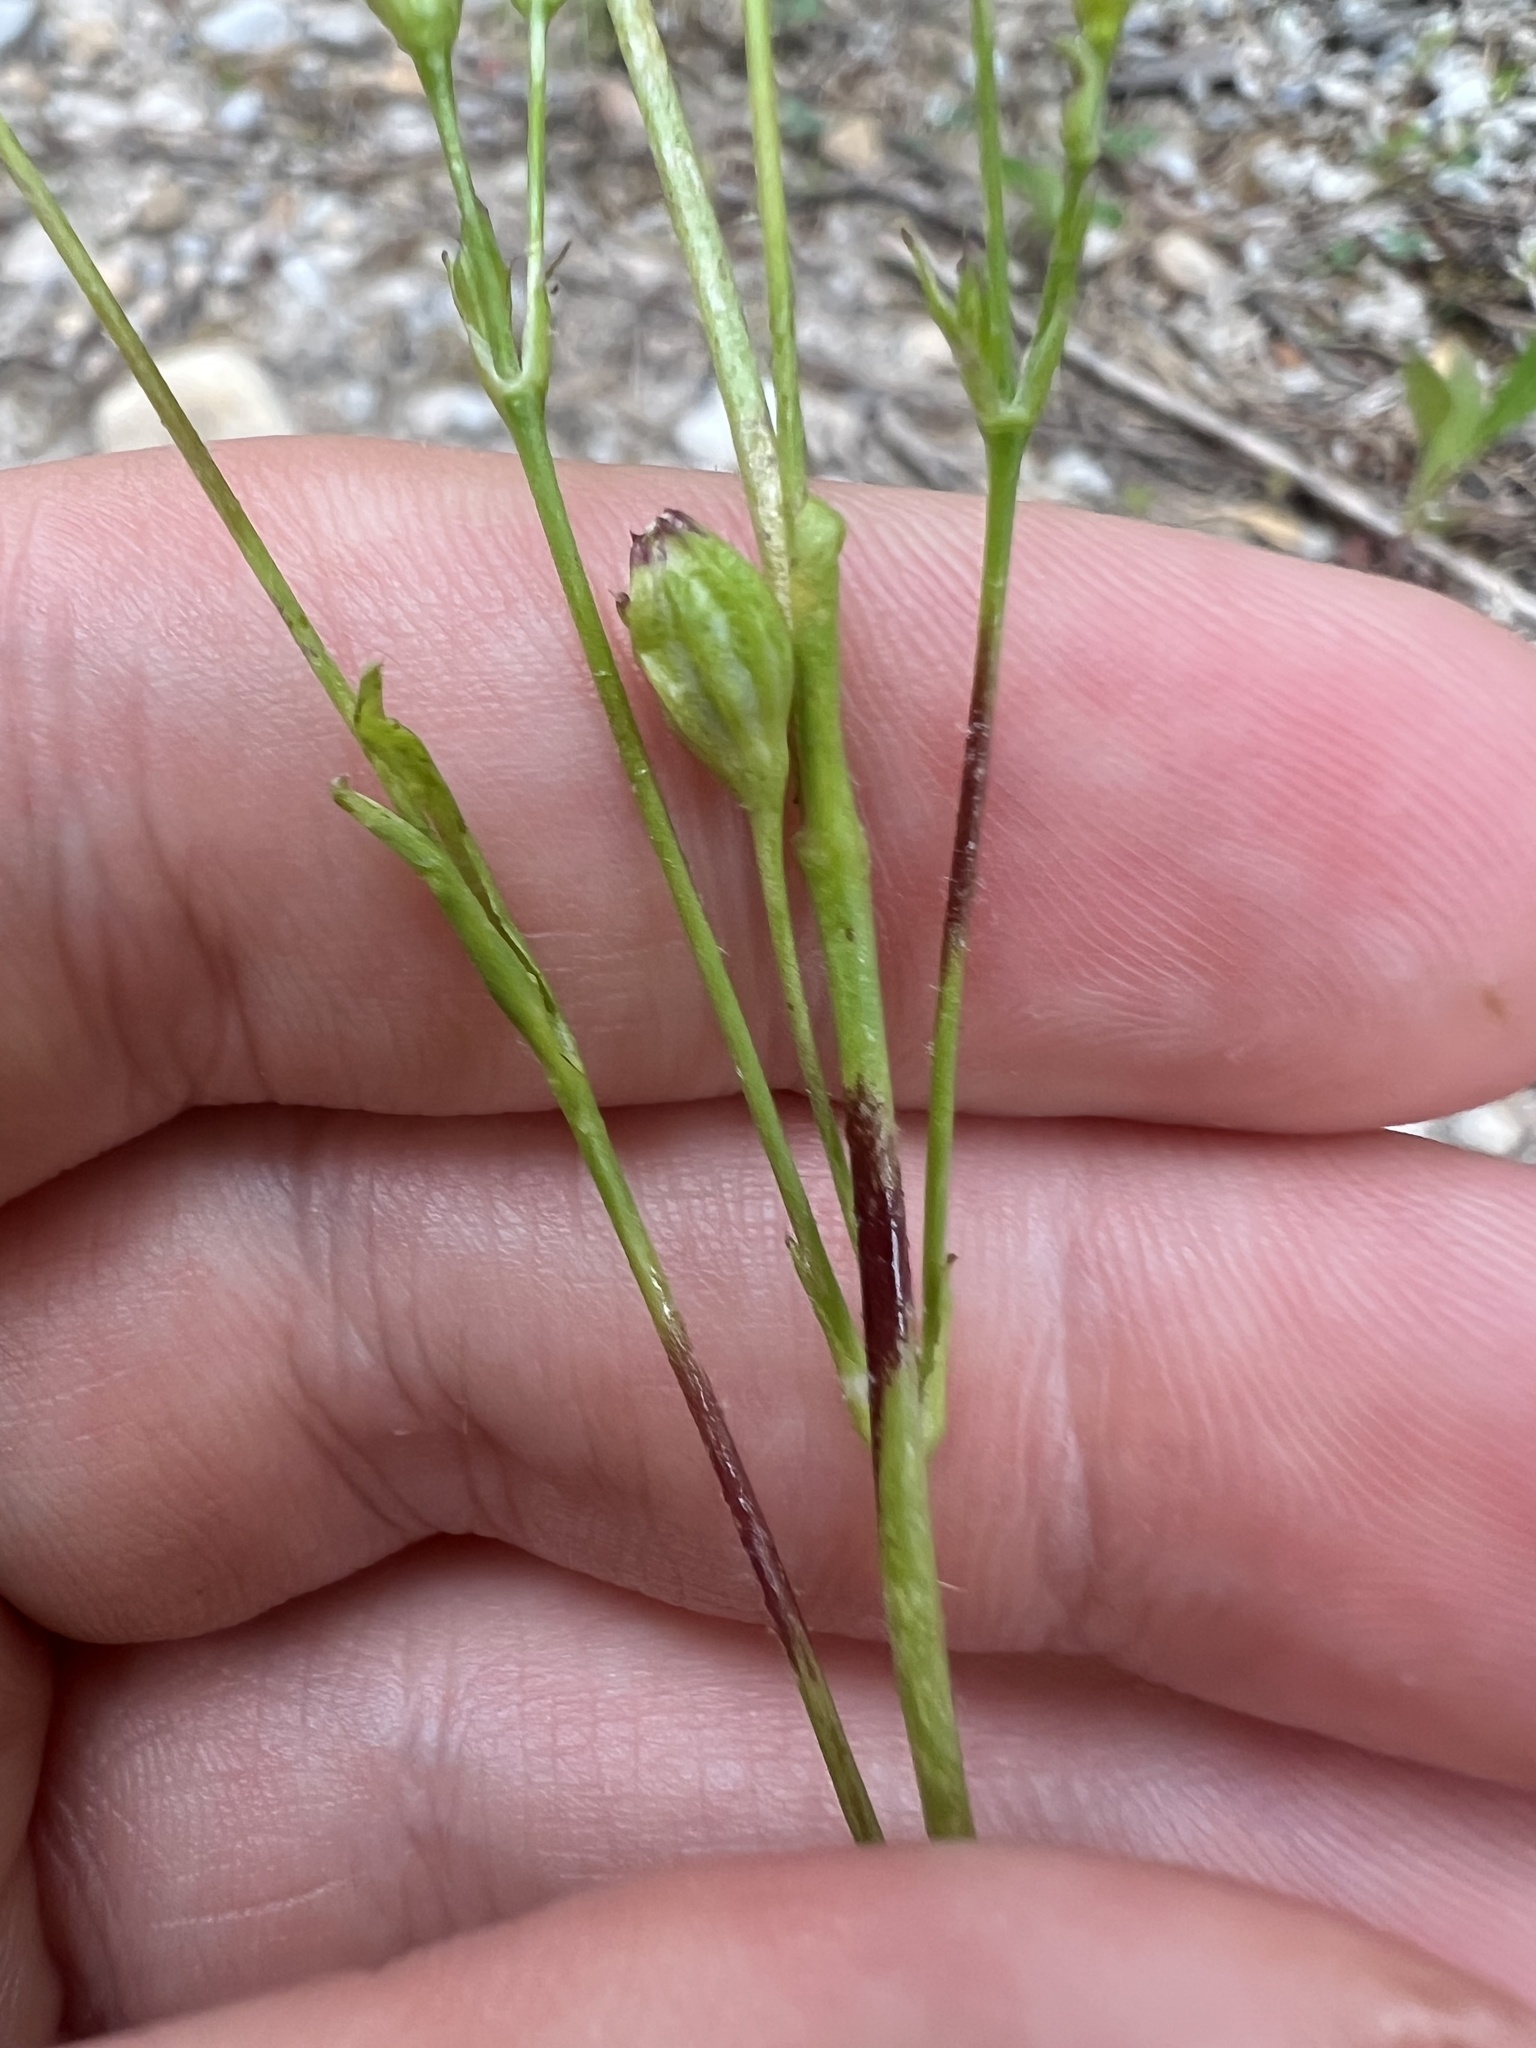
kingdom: Plantae
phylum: Tracheophyta
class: Magnoliopsida
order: Caryophyllales
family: Caryophyllaceae
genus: Silene
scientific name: Silene antirrhina
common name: Sleepy catchfly
